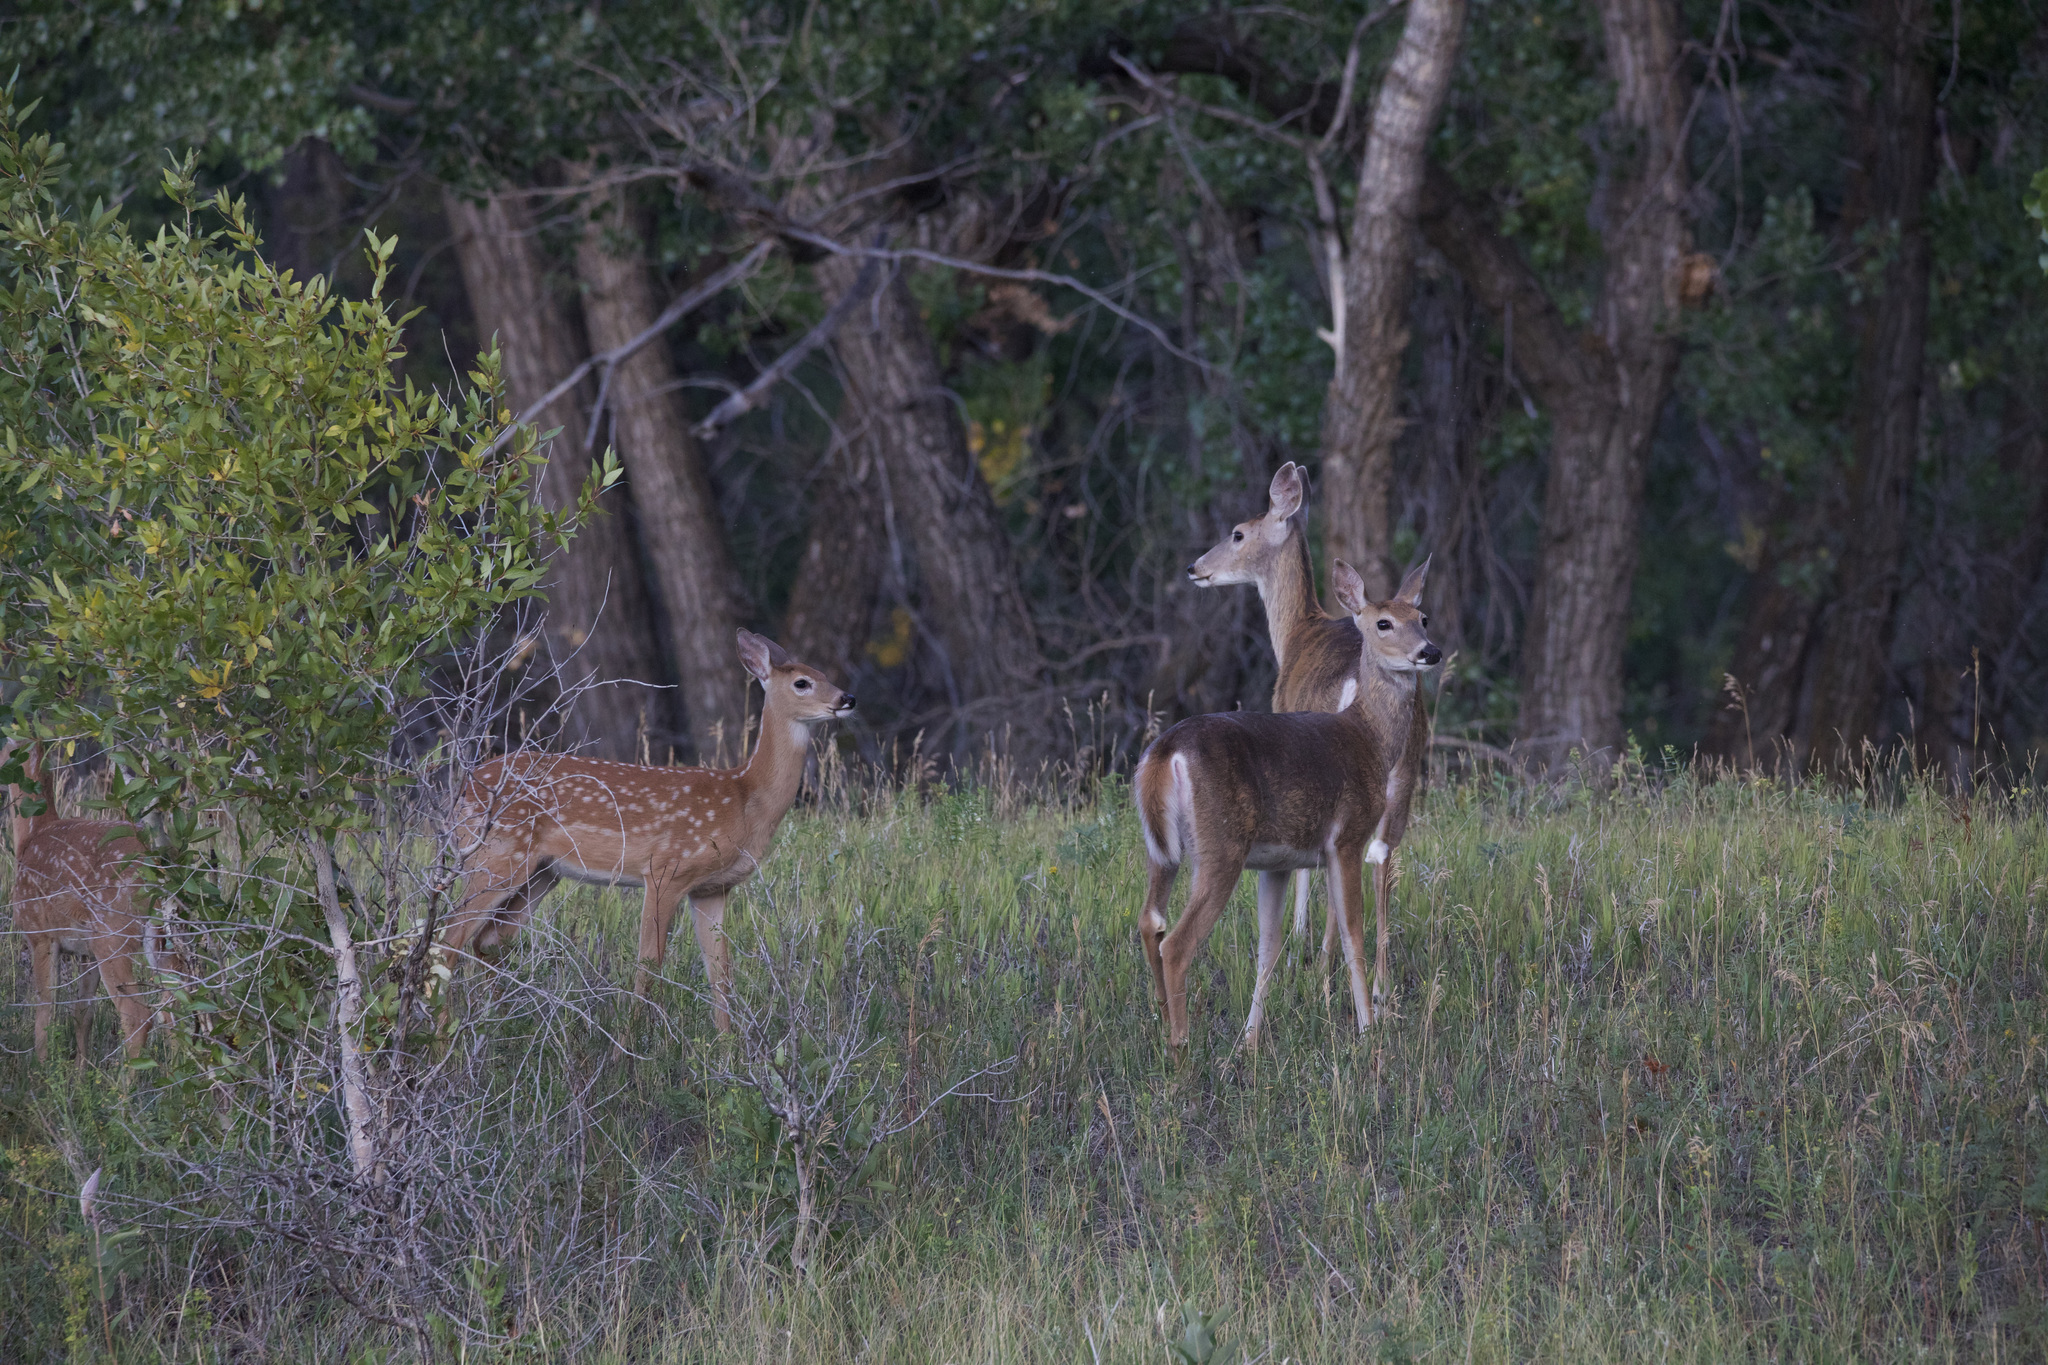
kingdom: Animalia
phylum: Chordata
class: Mammalia
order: Artiodactyla
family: Cervidae
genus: Odocoileus
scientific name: Odocoileus virginianus
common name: White-tailed deer
